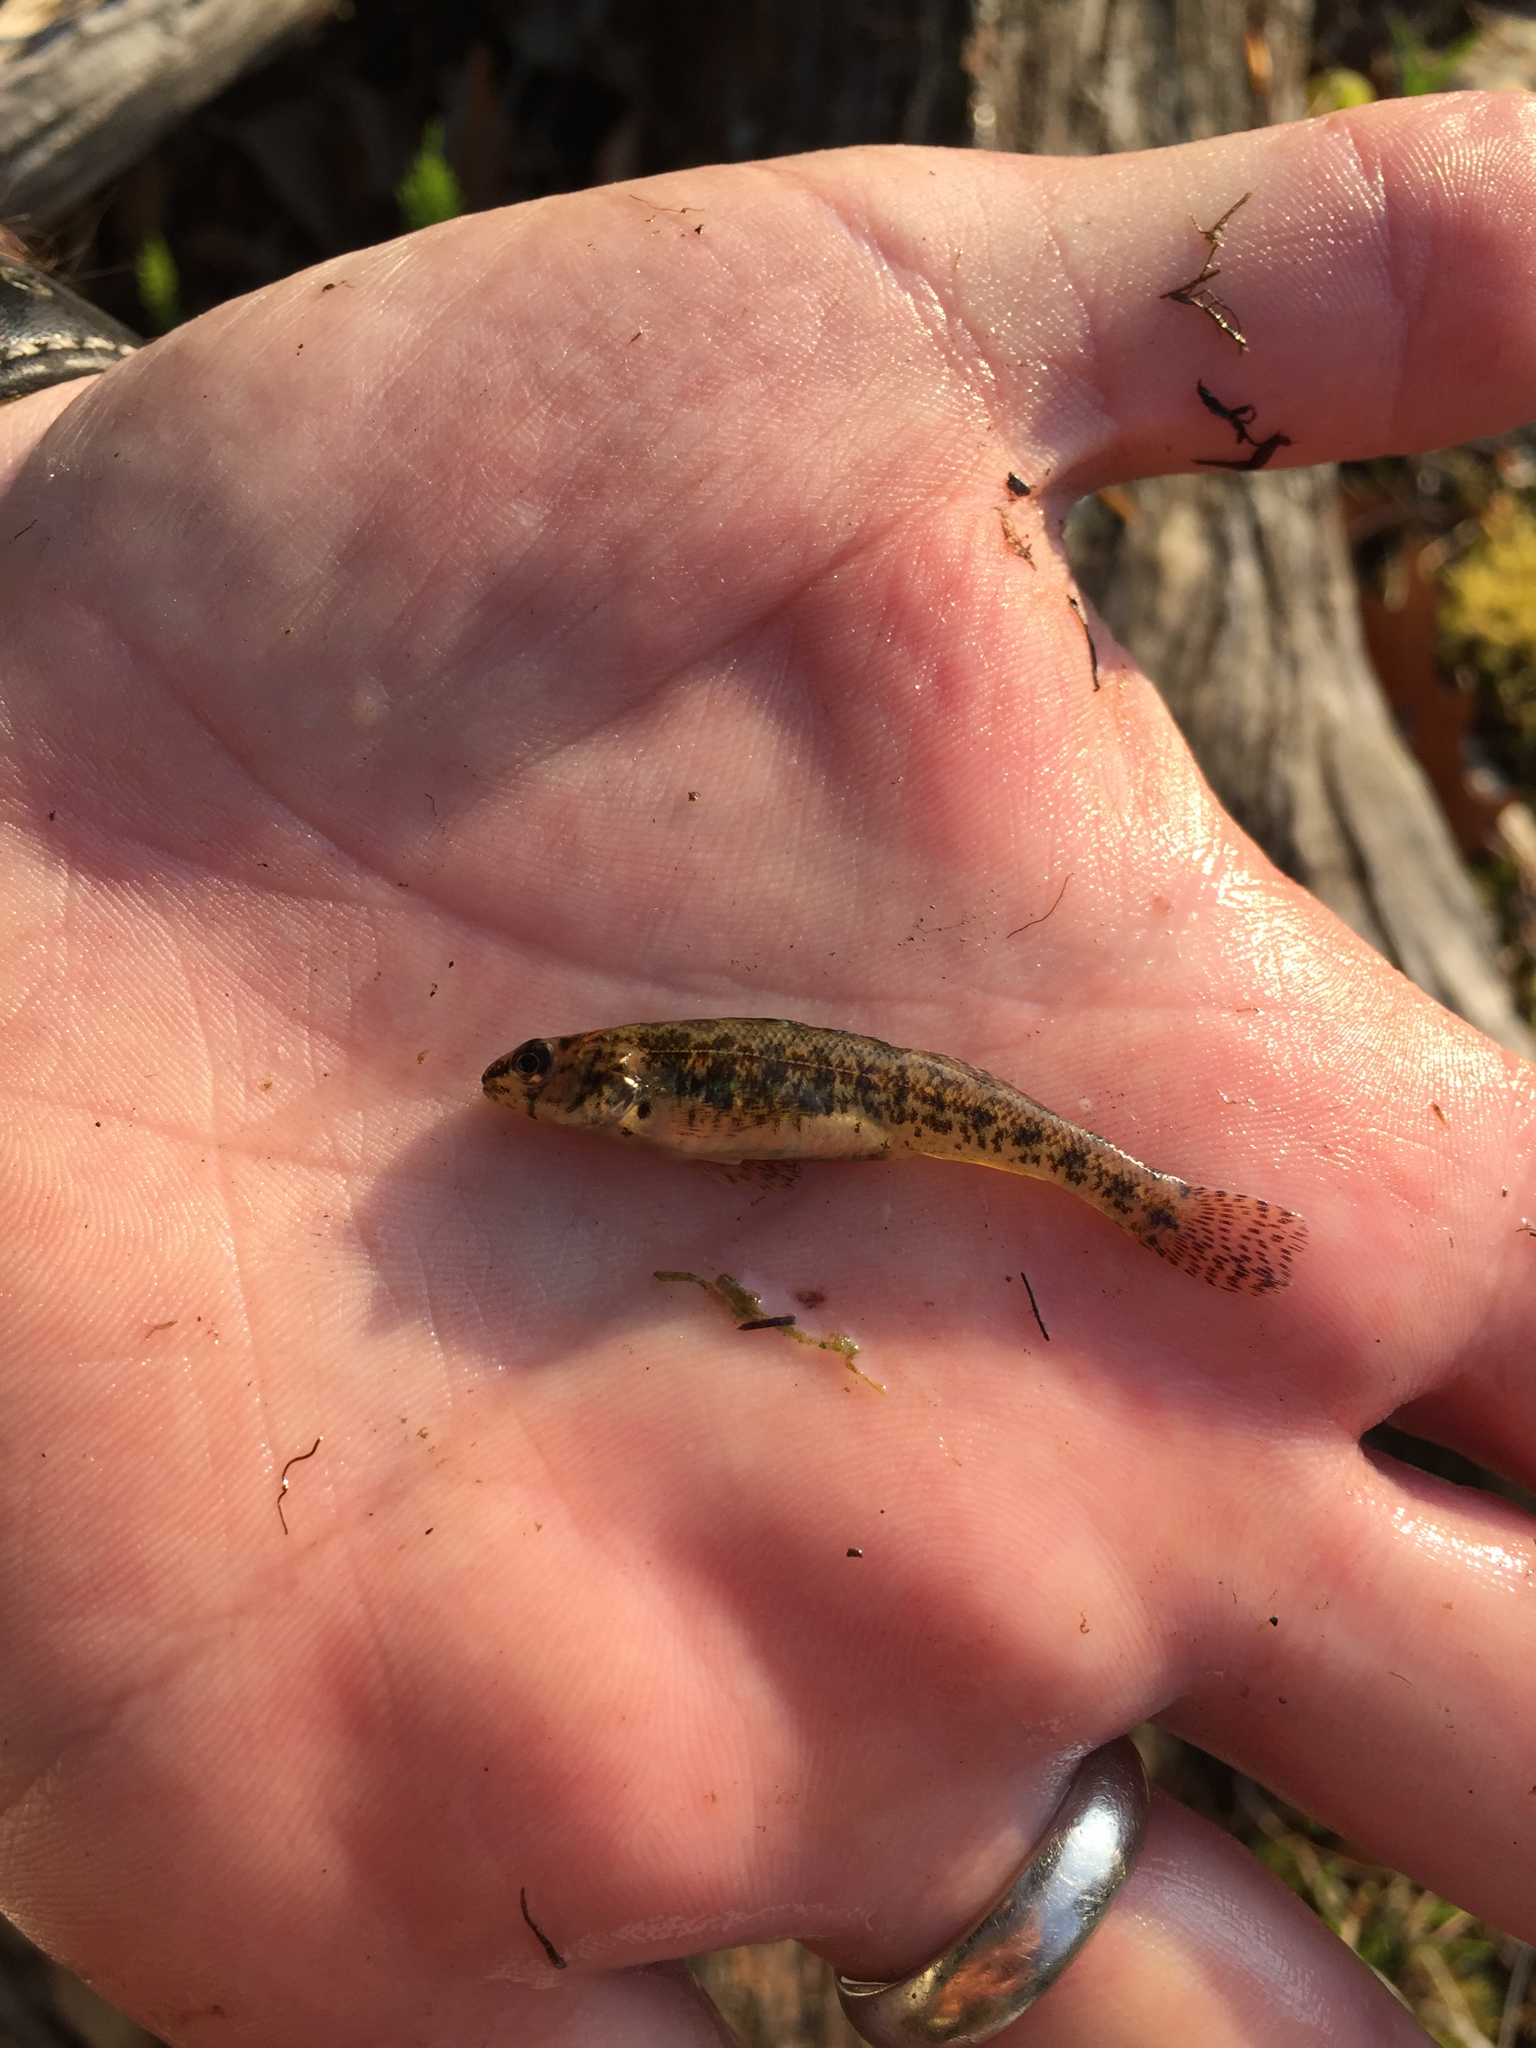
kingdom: Animalia
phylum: Chordata
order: Perciformes
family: Percidae
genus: Etheostoma
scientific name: Etheostoma nigrum
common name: Johnny darter
